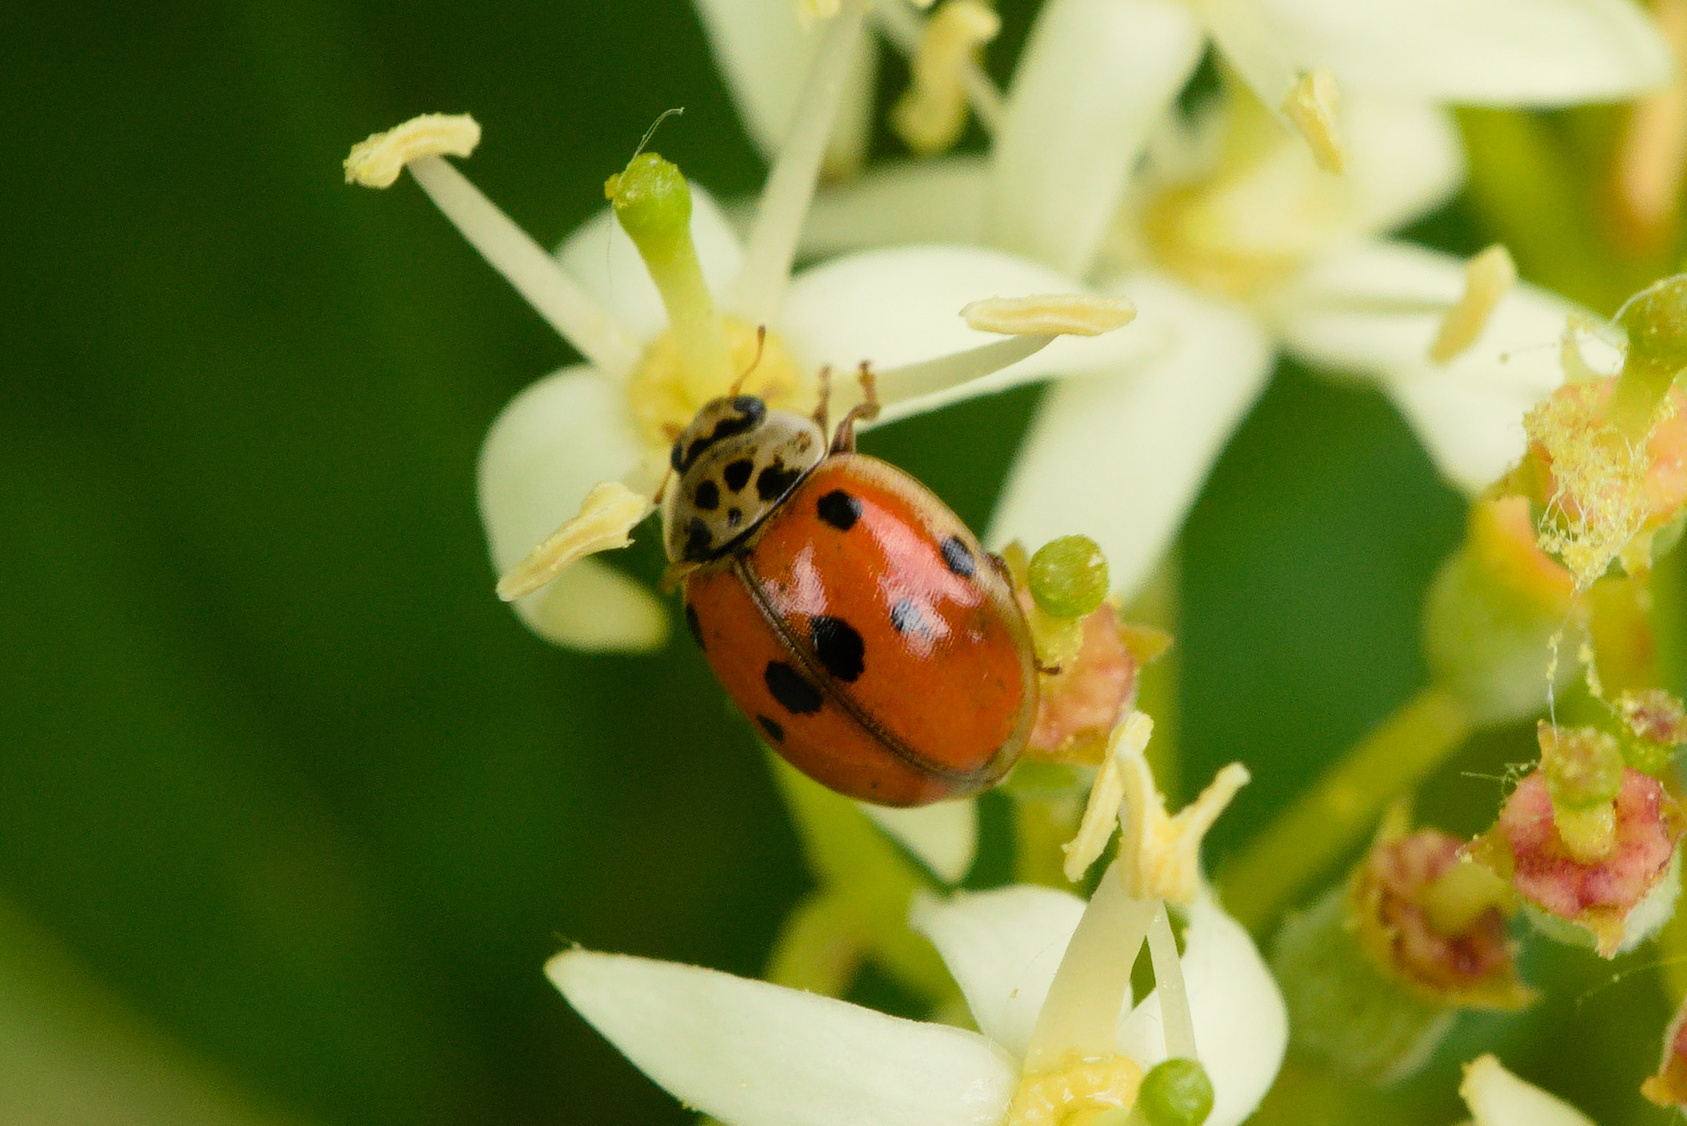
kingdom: Animalia
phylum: Arthropoda
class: Insecta
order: Coleoptera
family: Coccinellidae
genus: Adalia
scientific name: Adalia decempunctata
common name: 10-spot ladybird
